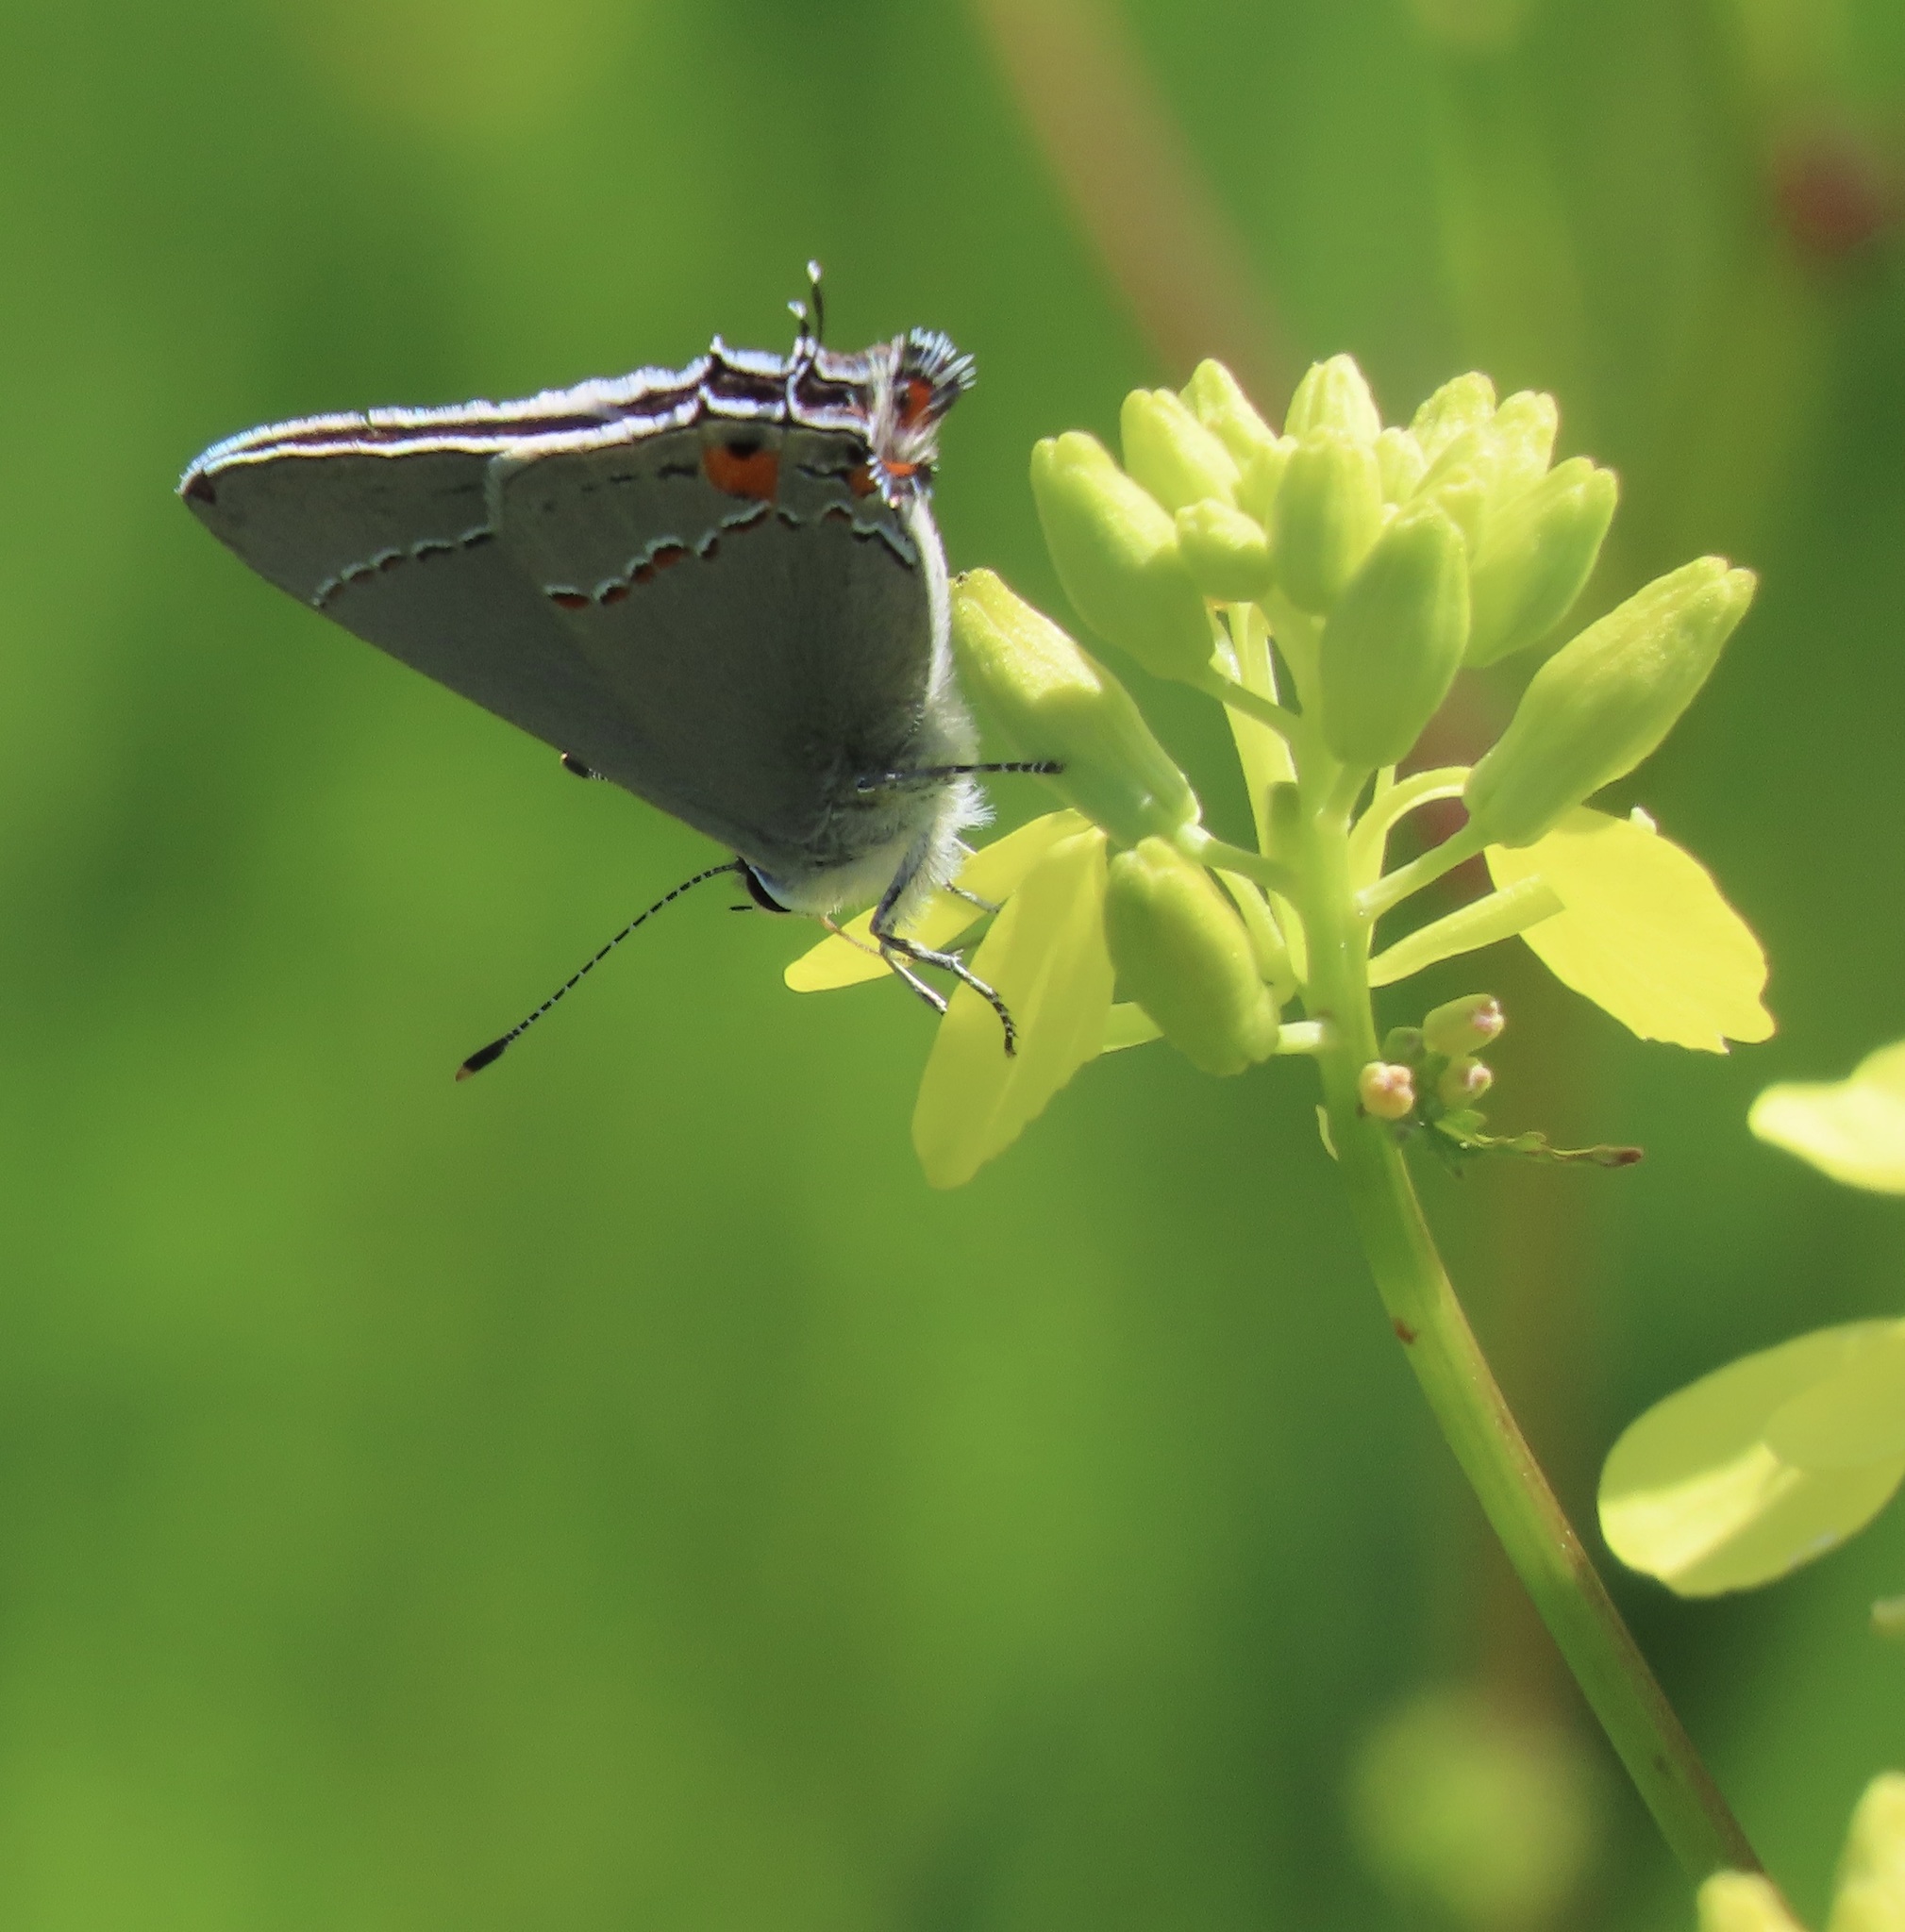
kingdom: Animalia
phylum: Arthropoda
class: Insecta
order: Lepidoptera
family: Lycaenidae
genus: Strymon
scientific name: Strymon melinus
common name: Gray hairstreak
